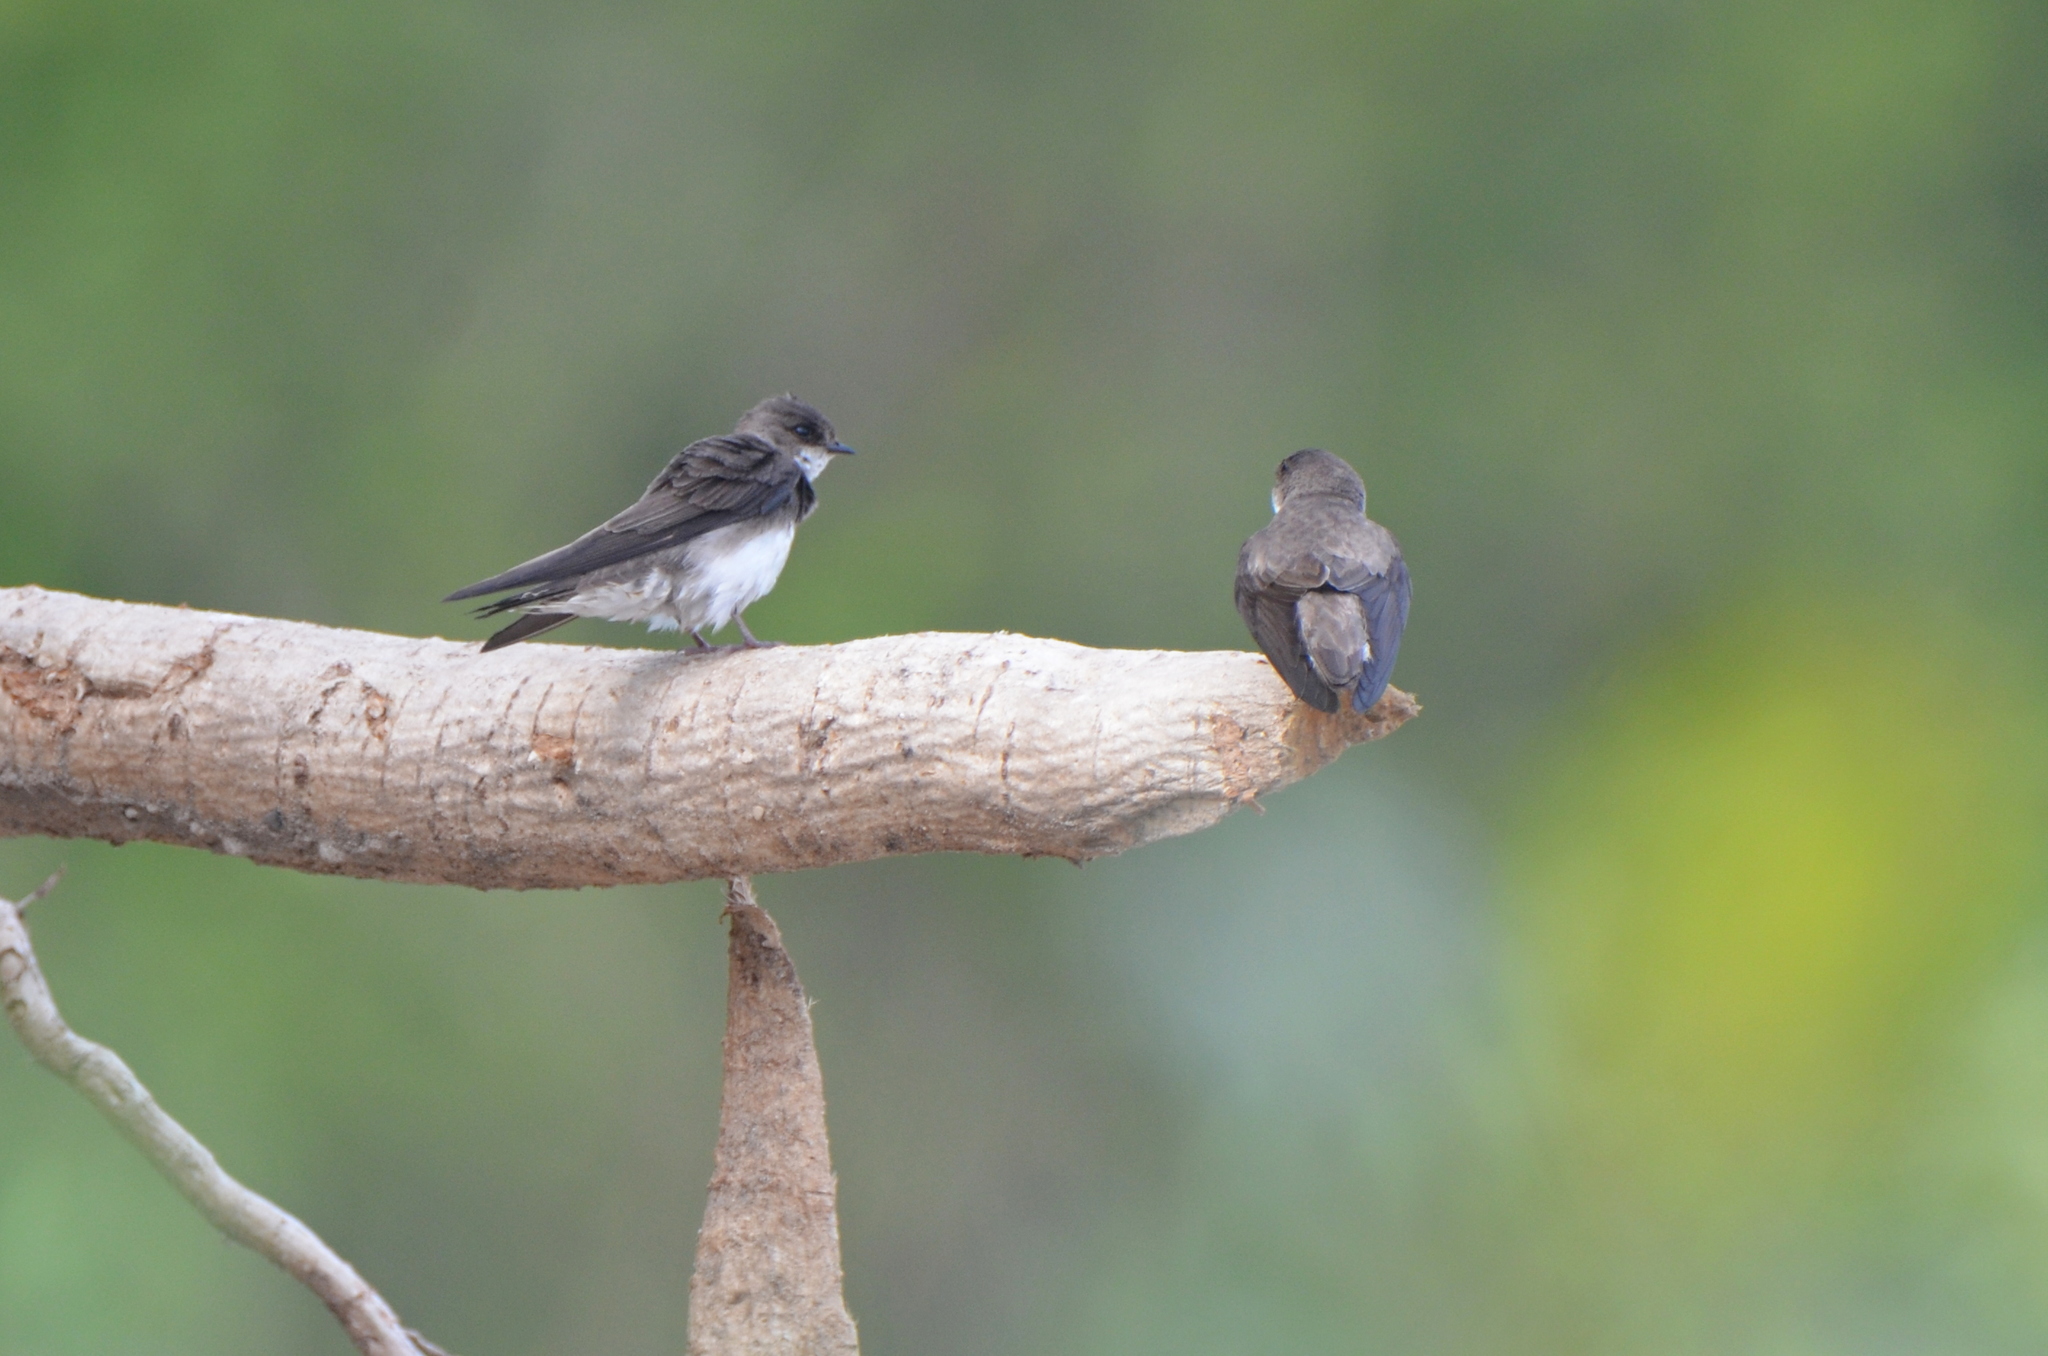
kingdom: Animalia
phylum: Chordata
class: Aves
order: Passeriformes
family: Hirundinidae
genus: Tachycineta
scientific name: Tachycineta bicolor
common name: Tree swallow
